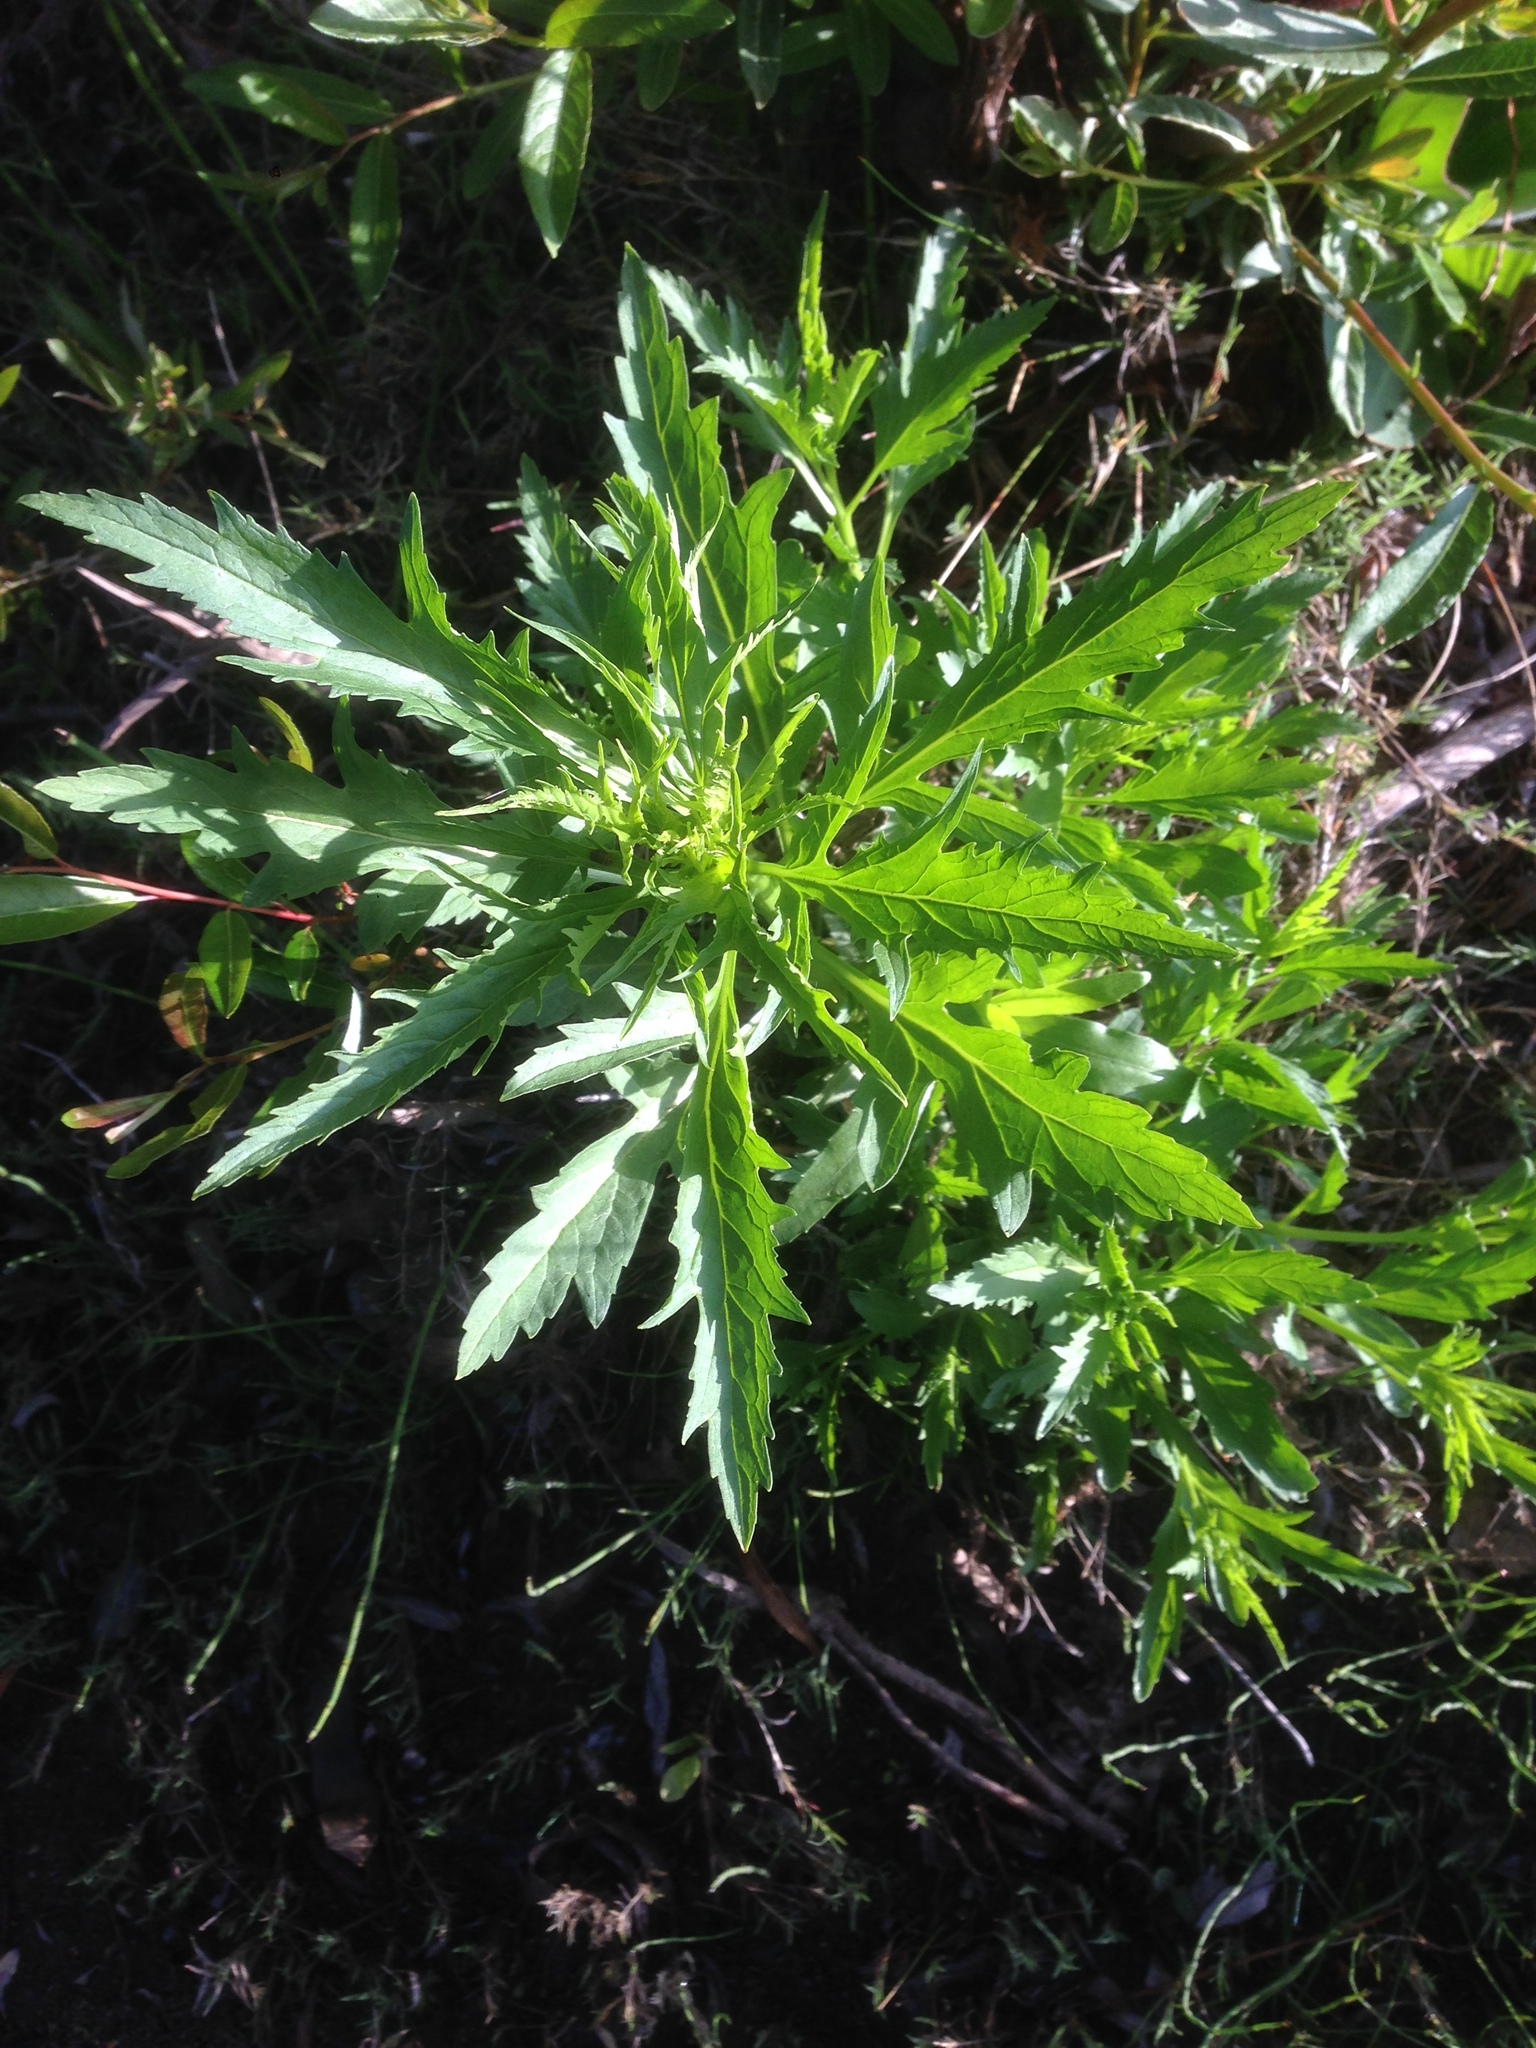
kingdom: Plantae
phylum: Tracheophyta
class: Magnoliopsida
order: Cucurbitales
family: Datiscaceae
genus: Datisca
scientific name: Datisca glomerata
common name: Durango-root
